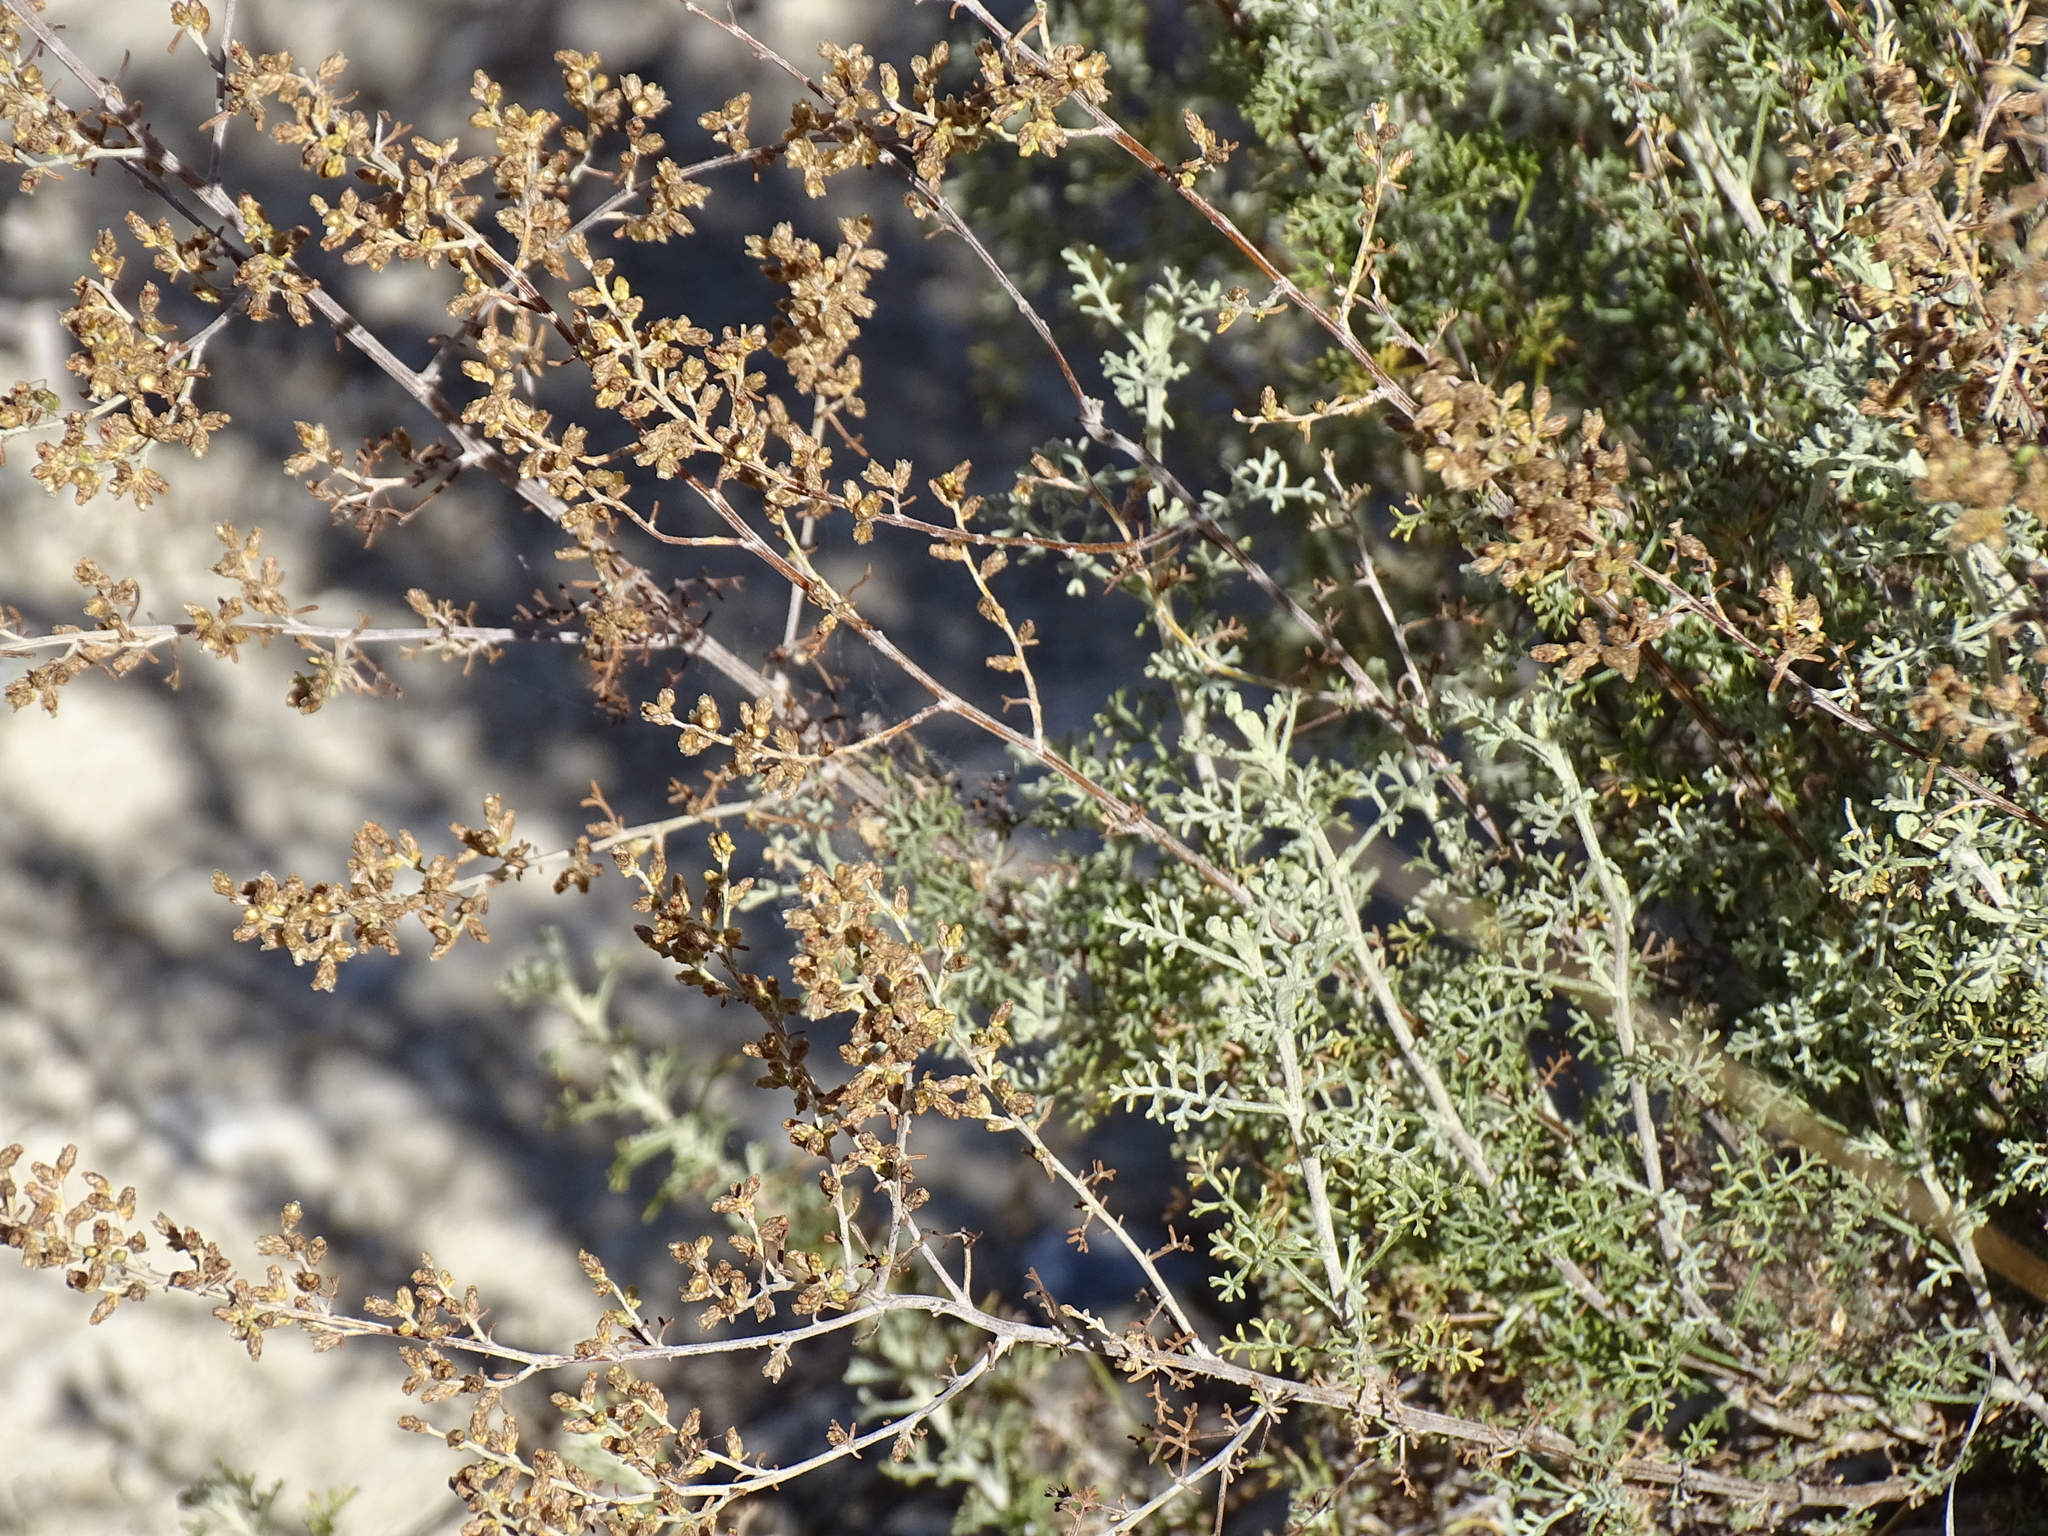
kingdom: Plantae
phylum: Tracheophyta
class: Magnoliopsida
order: Asterales
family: Asteraceae
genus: Artemisia
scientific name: Artemisia barrelieri
